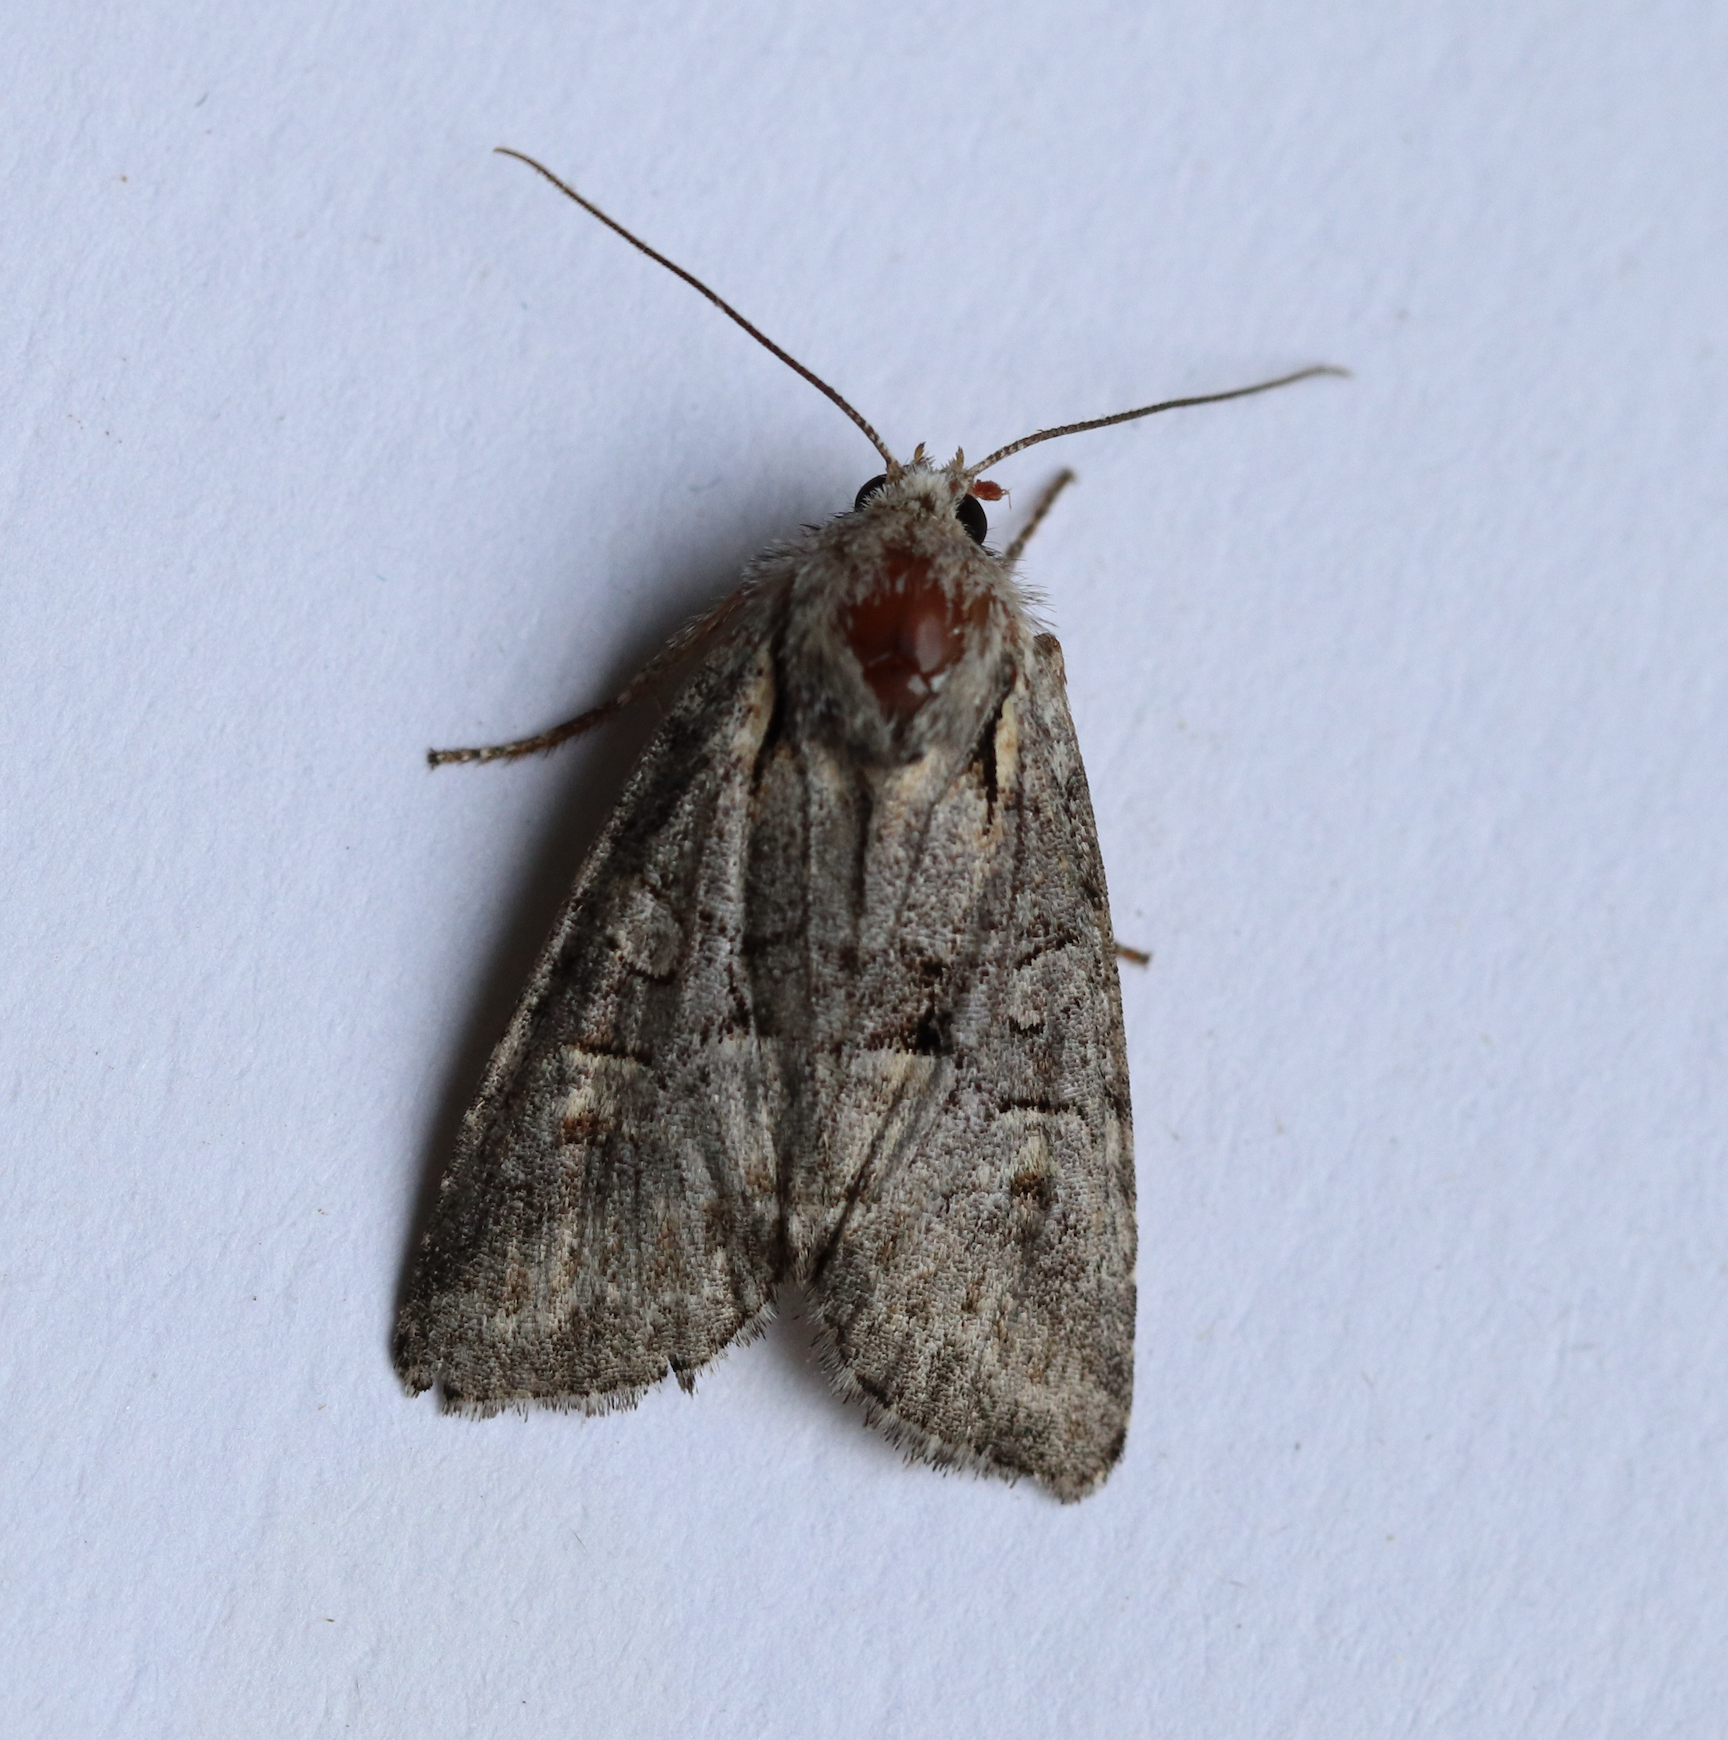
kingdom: Animalia
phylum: Arthropoda
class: Insecta
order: Lepidoptera
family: Noctuidae
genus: Brachylomia
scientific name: Brachylomia viminalis
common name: Minor shoulder-knot
